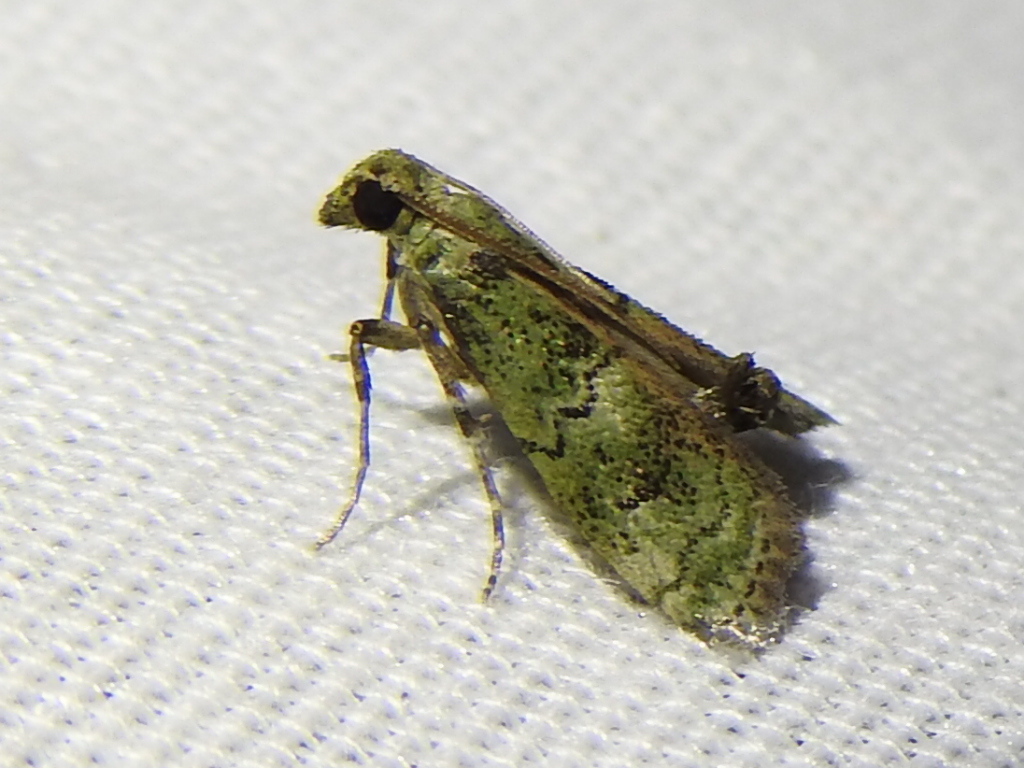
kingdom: Animalia
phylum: Arthropoda
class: Insecta
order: Lepidoptera
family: Pyralidae
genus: Cacotherapia
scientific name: Cacotherapia flexilinealis
